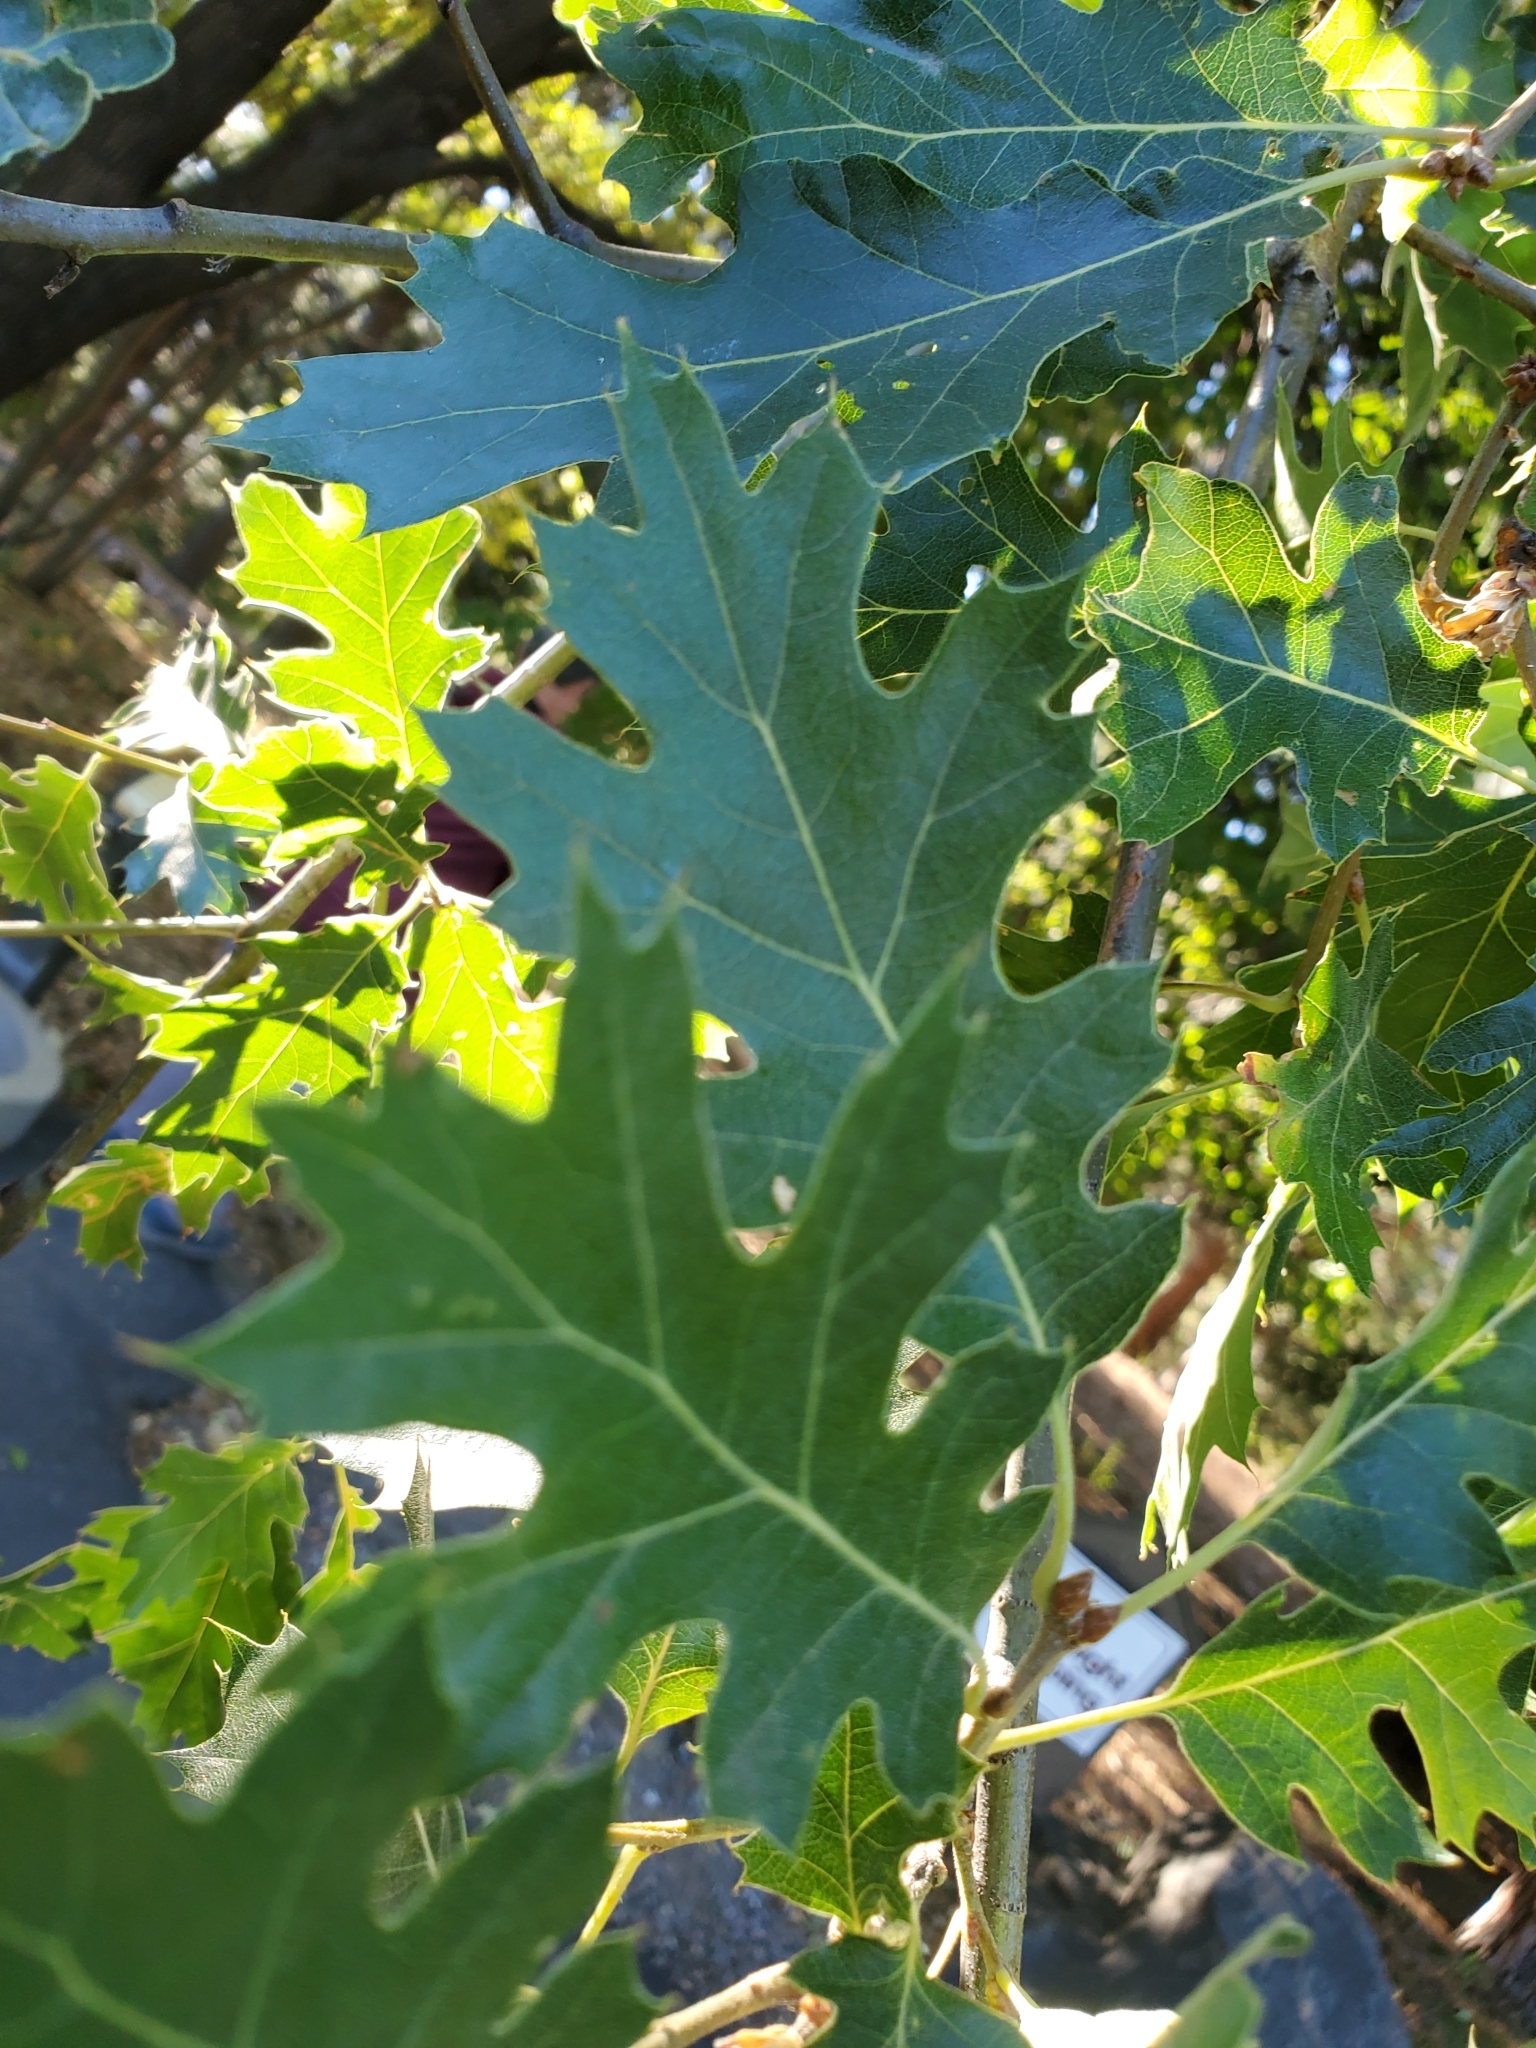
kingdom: Plantae
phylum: Tracheophyta
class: Magnoliopsida
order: Fagales
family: Fagaceae
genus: Quercus
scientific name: Quercus kelloggii
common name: California black oak
